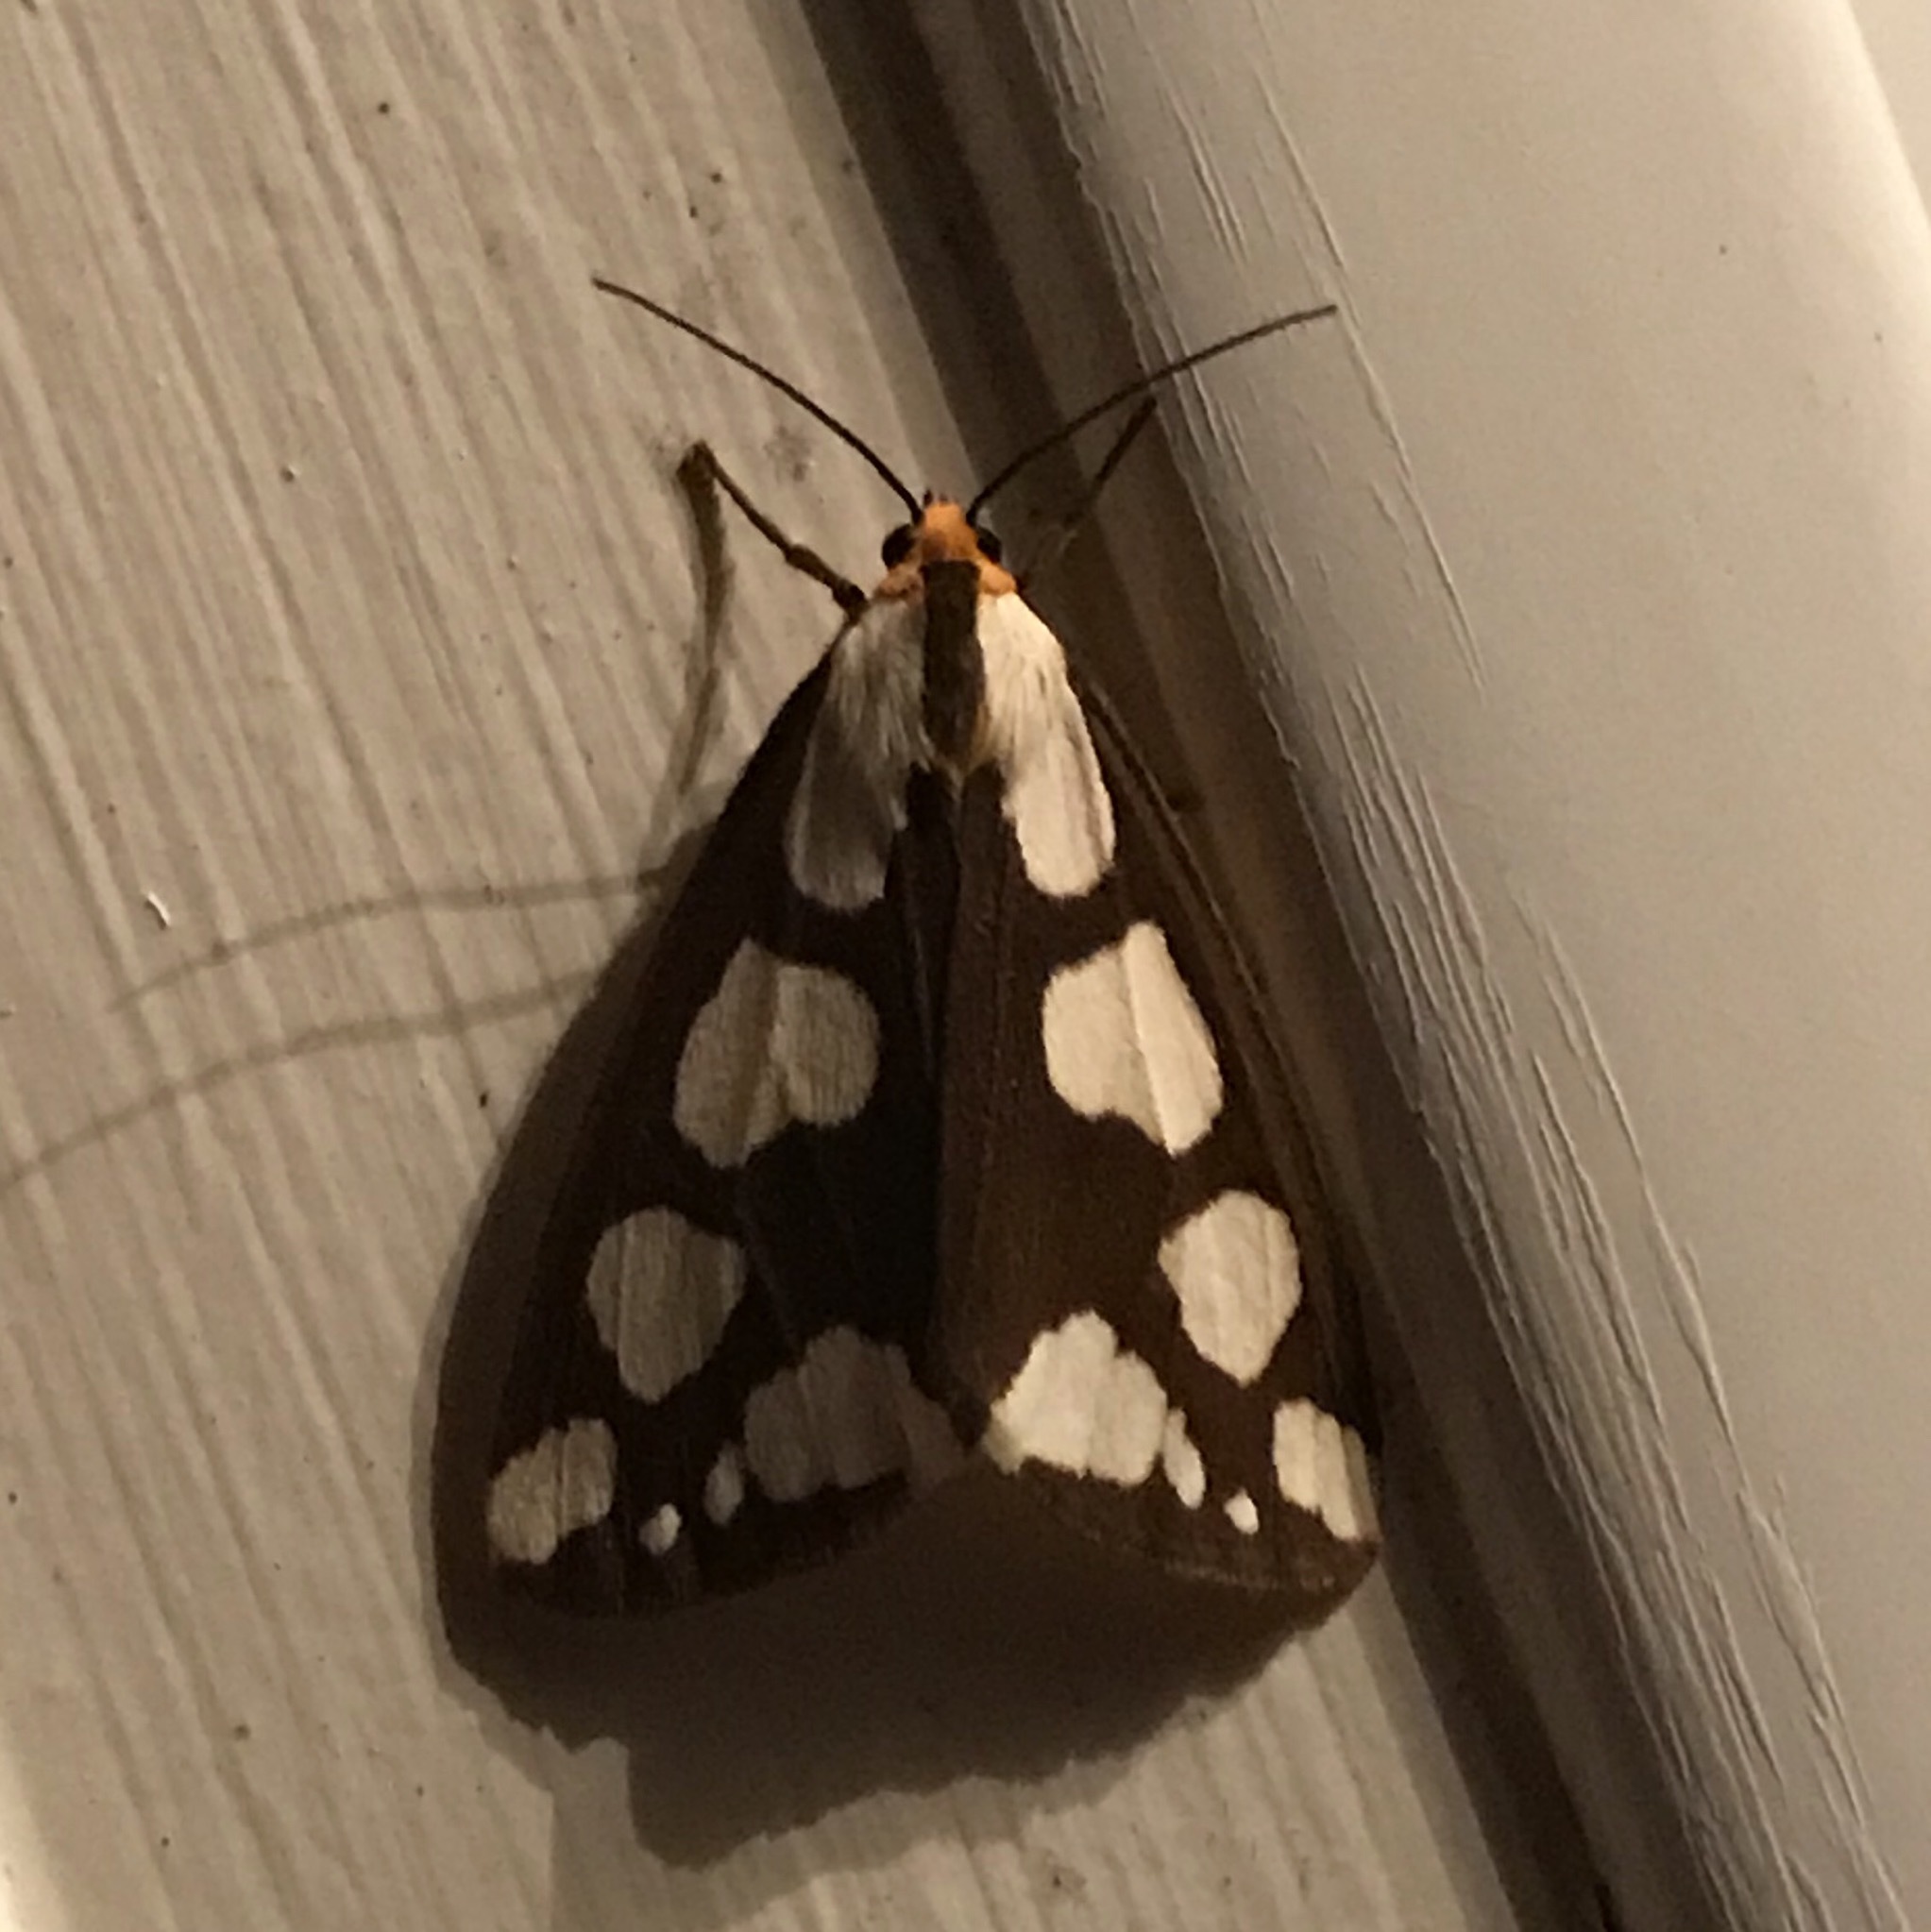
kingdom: Animalia
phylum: Arthropoda
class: Insecta
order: Lepidoptera
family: Erebidae
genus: Haploa
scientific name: Haploa lecontei
